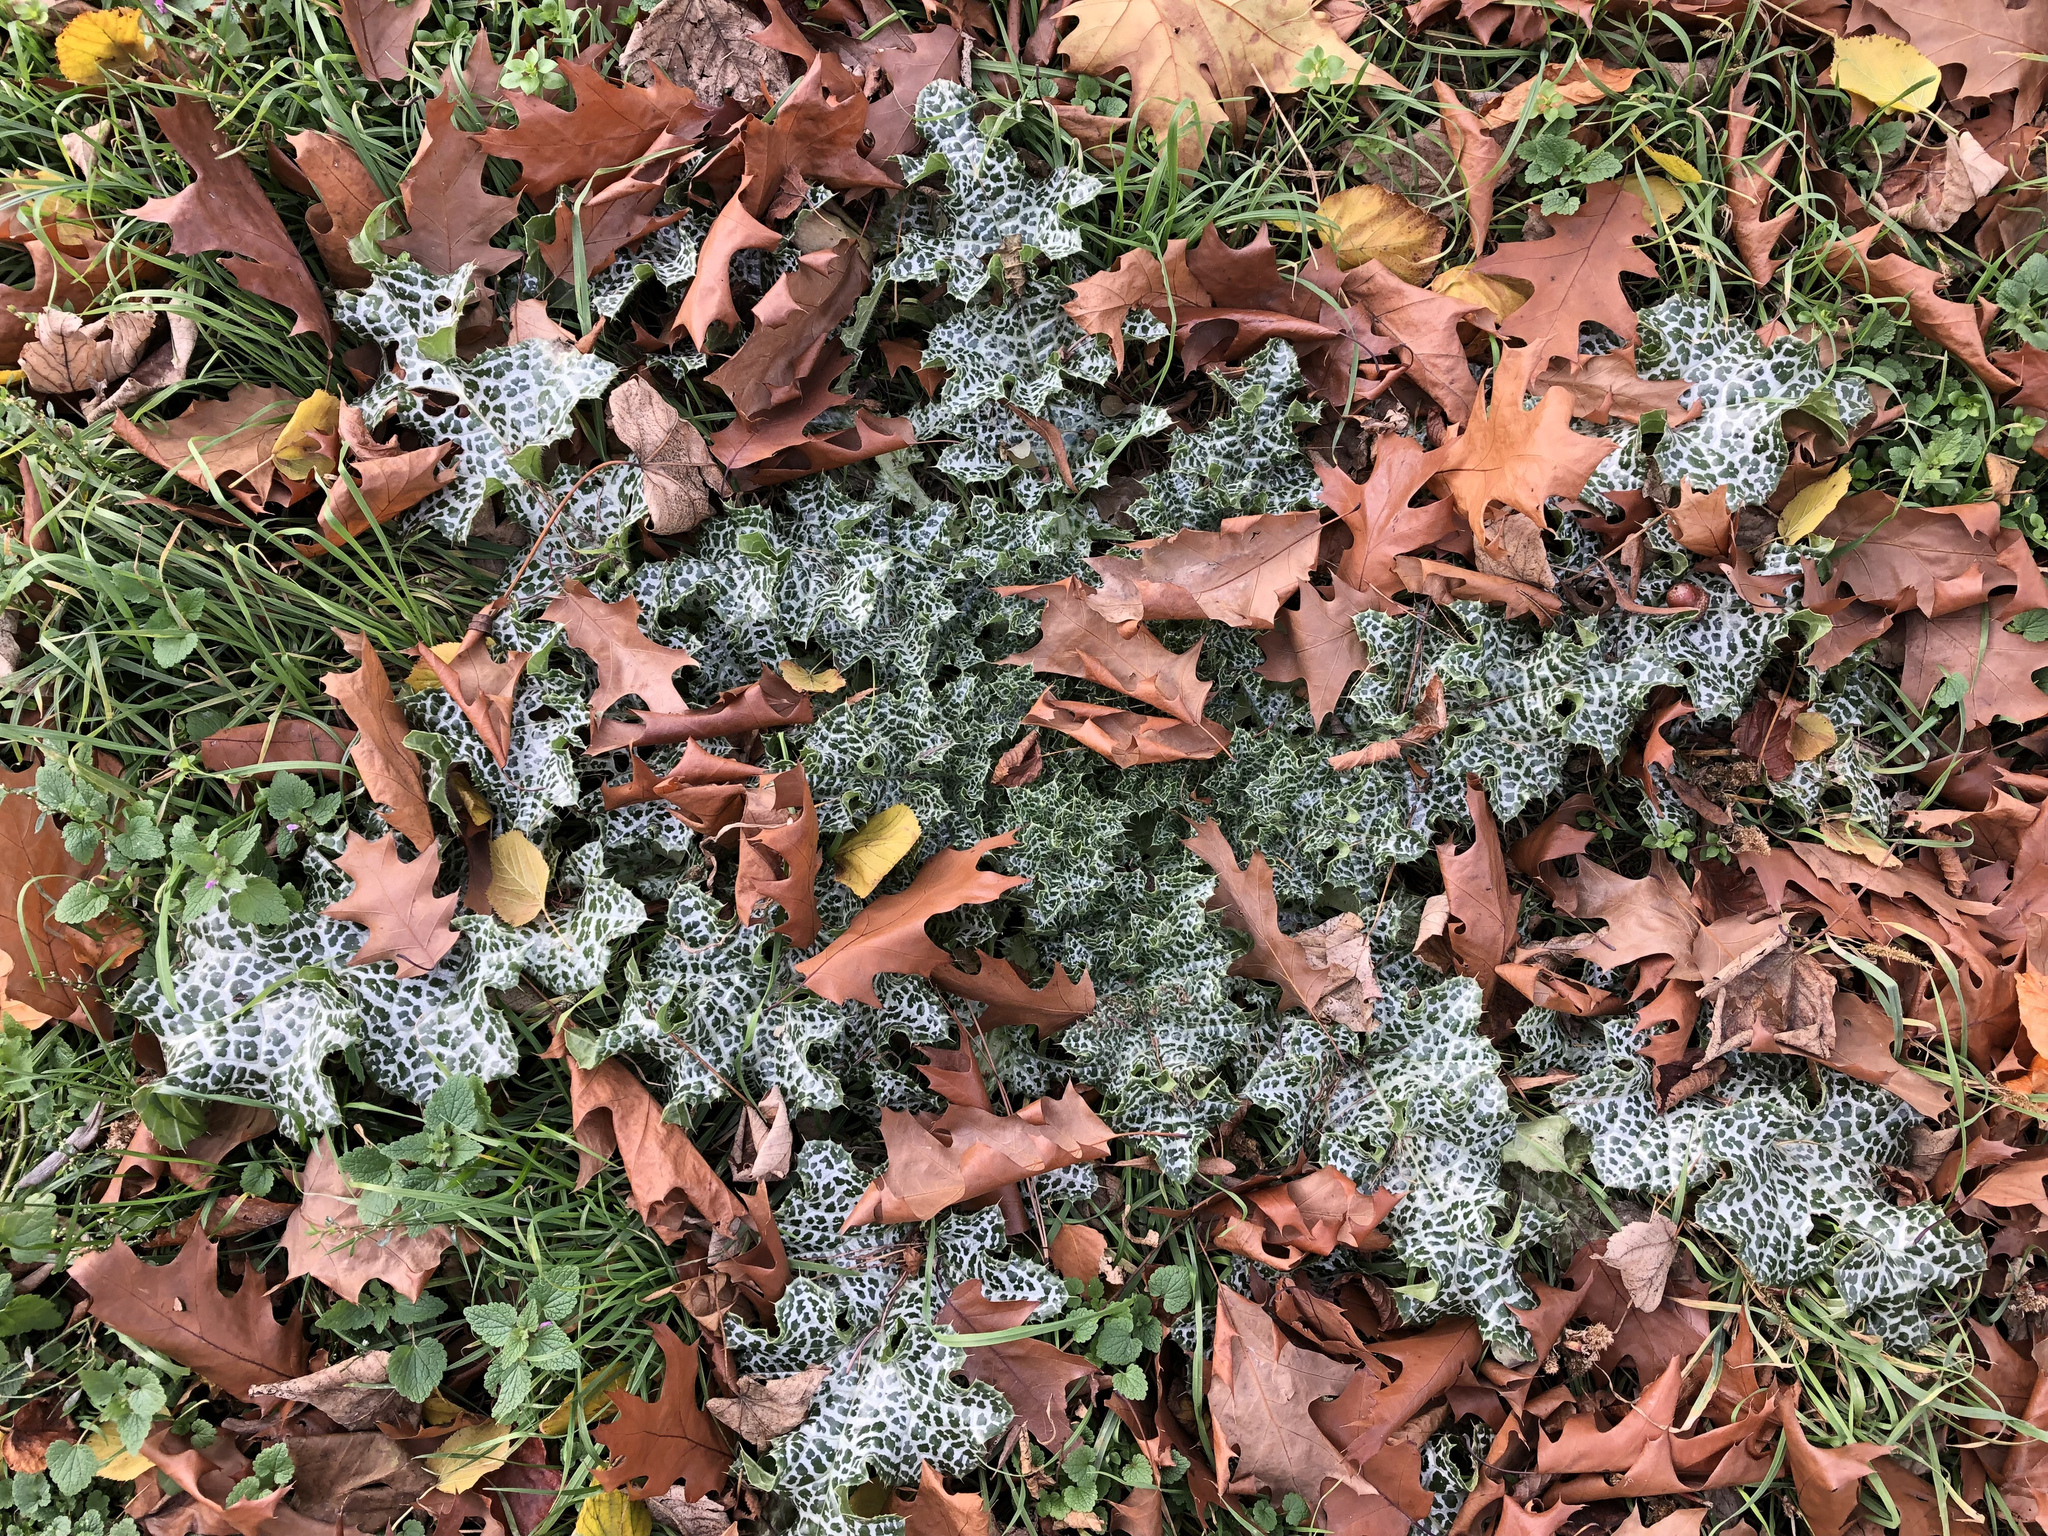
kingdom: Plantae
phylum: Tracheophyta
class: Magnoliopsida
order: Asterales
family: Asteraceae
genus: Silybum
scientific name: Silybum marianum
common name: Milk thistle
